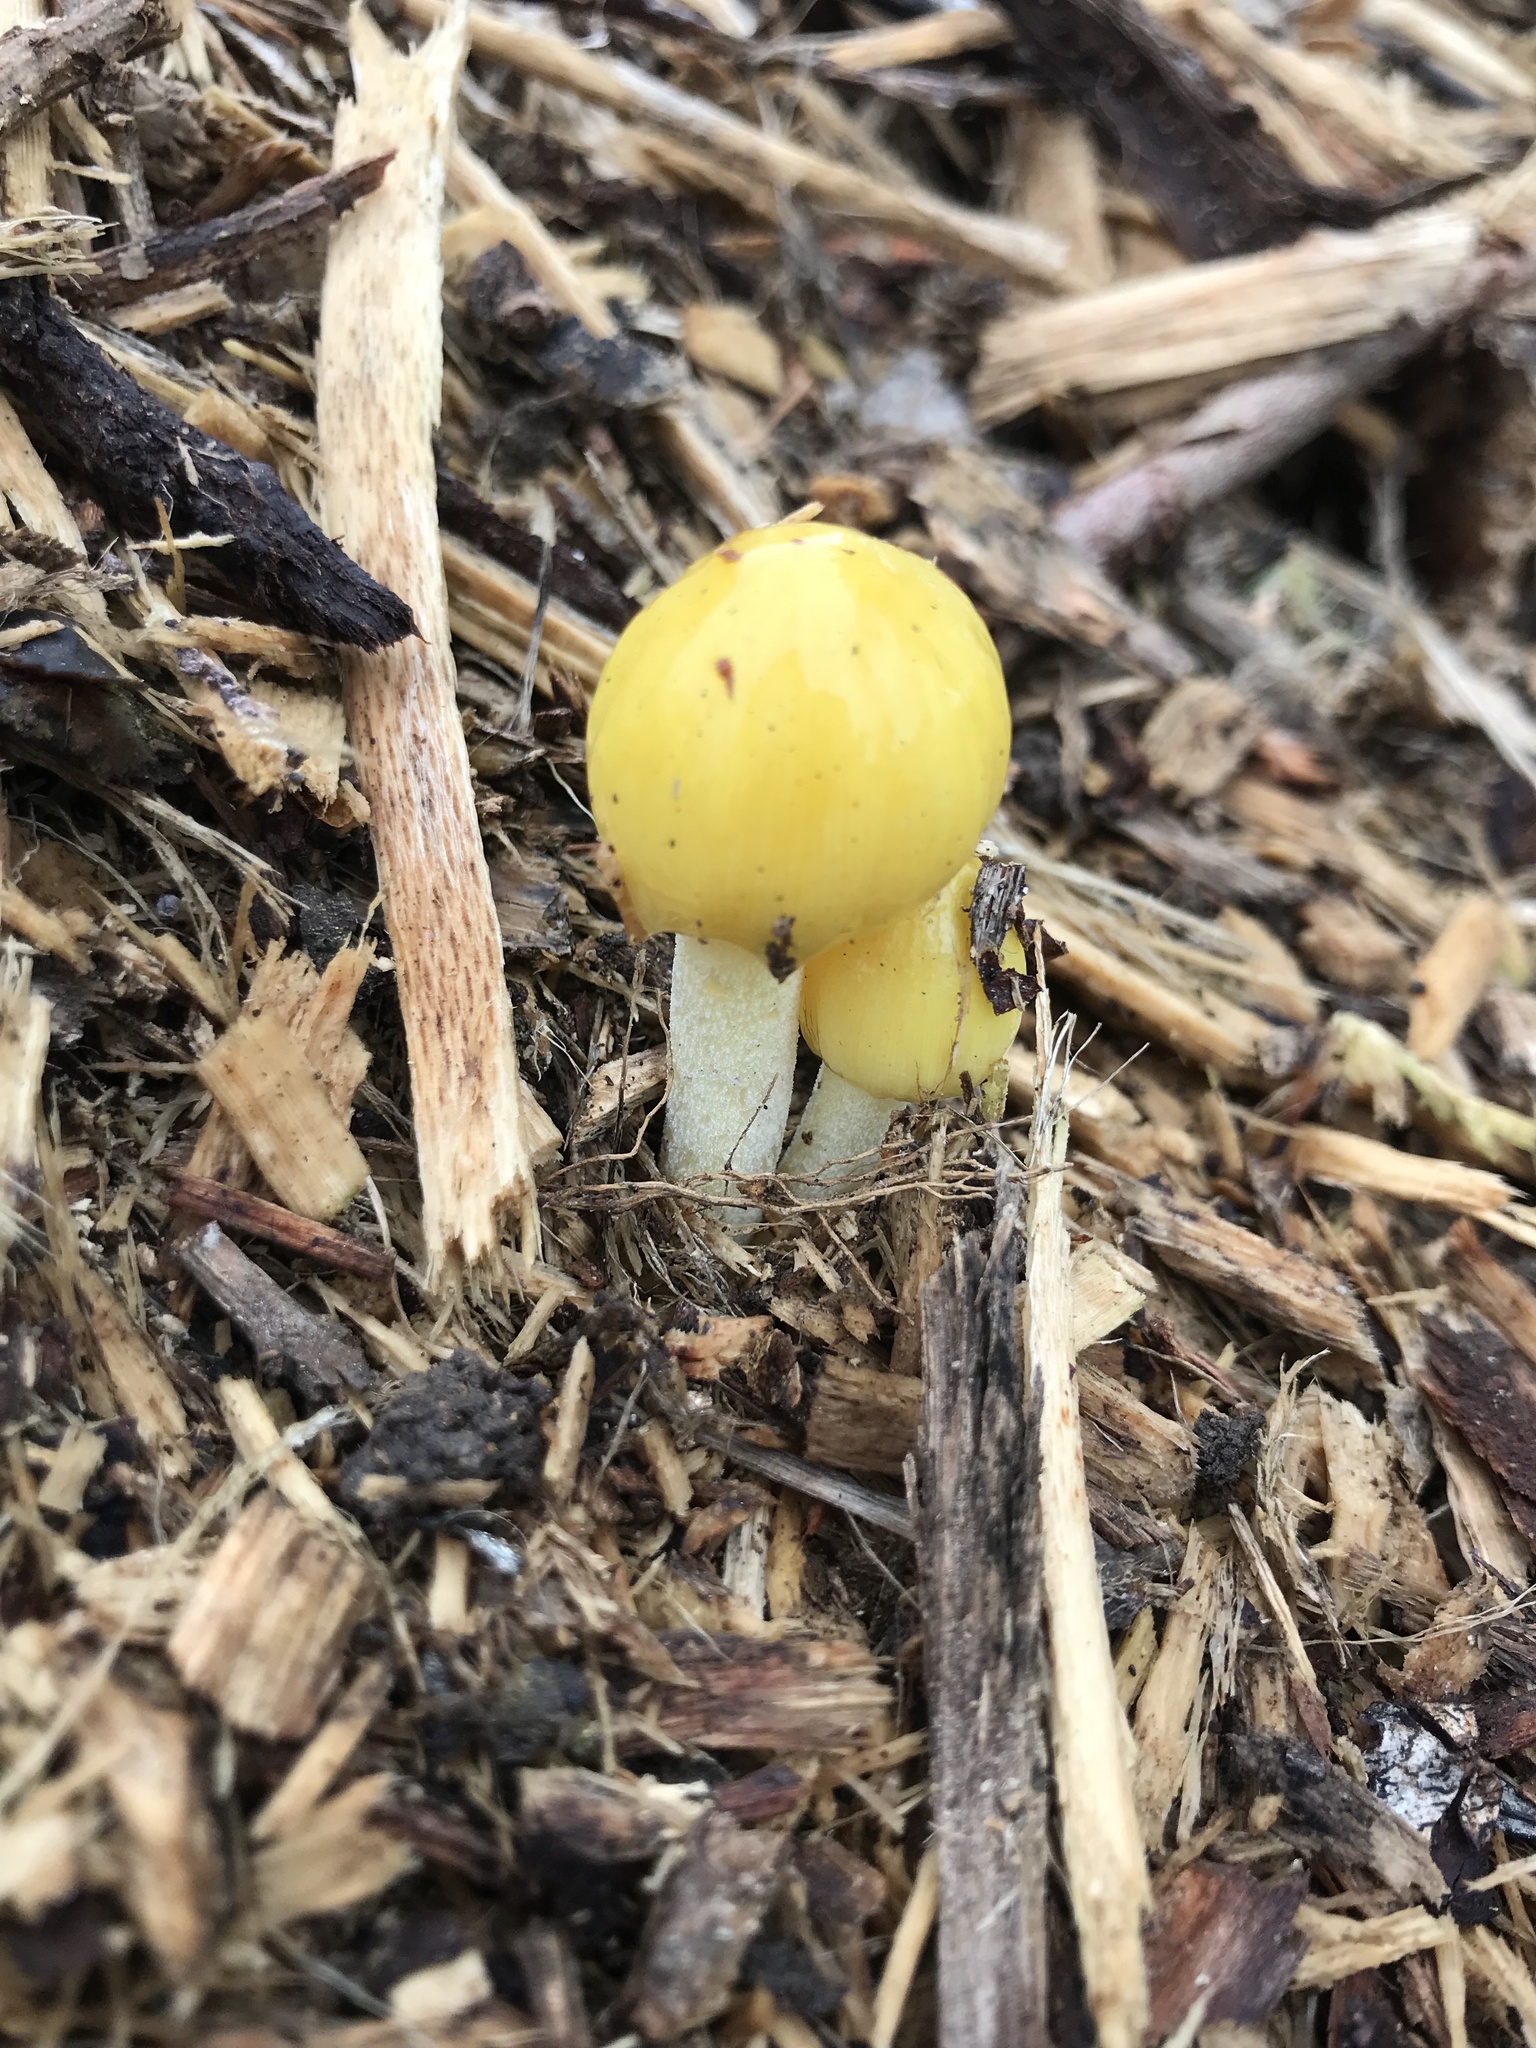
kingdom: Fungi
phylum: Basidiomycota
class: Agaricomycetes
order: Agaricales
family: Bolbitiaceae
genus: Bolbitius
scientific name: Bolbitius titubans
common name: Yellow fieldcap
